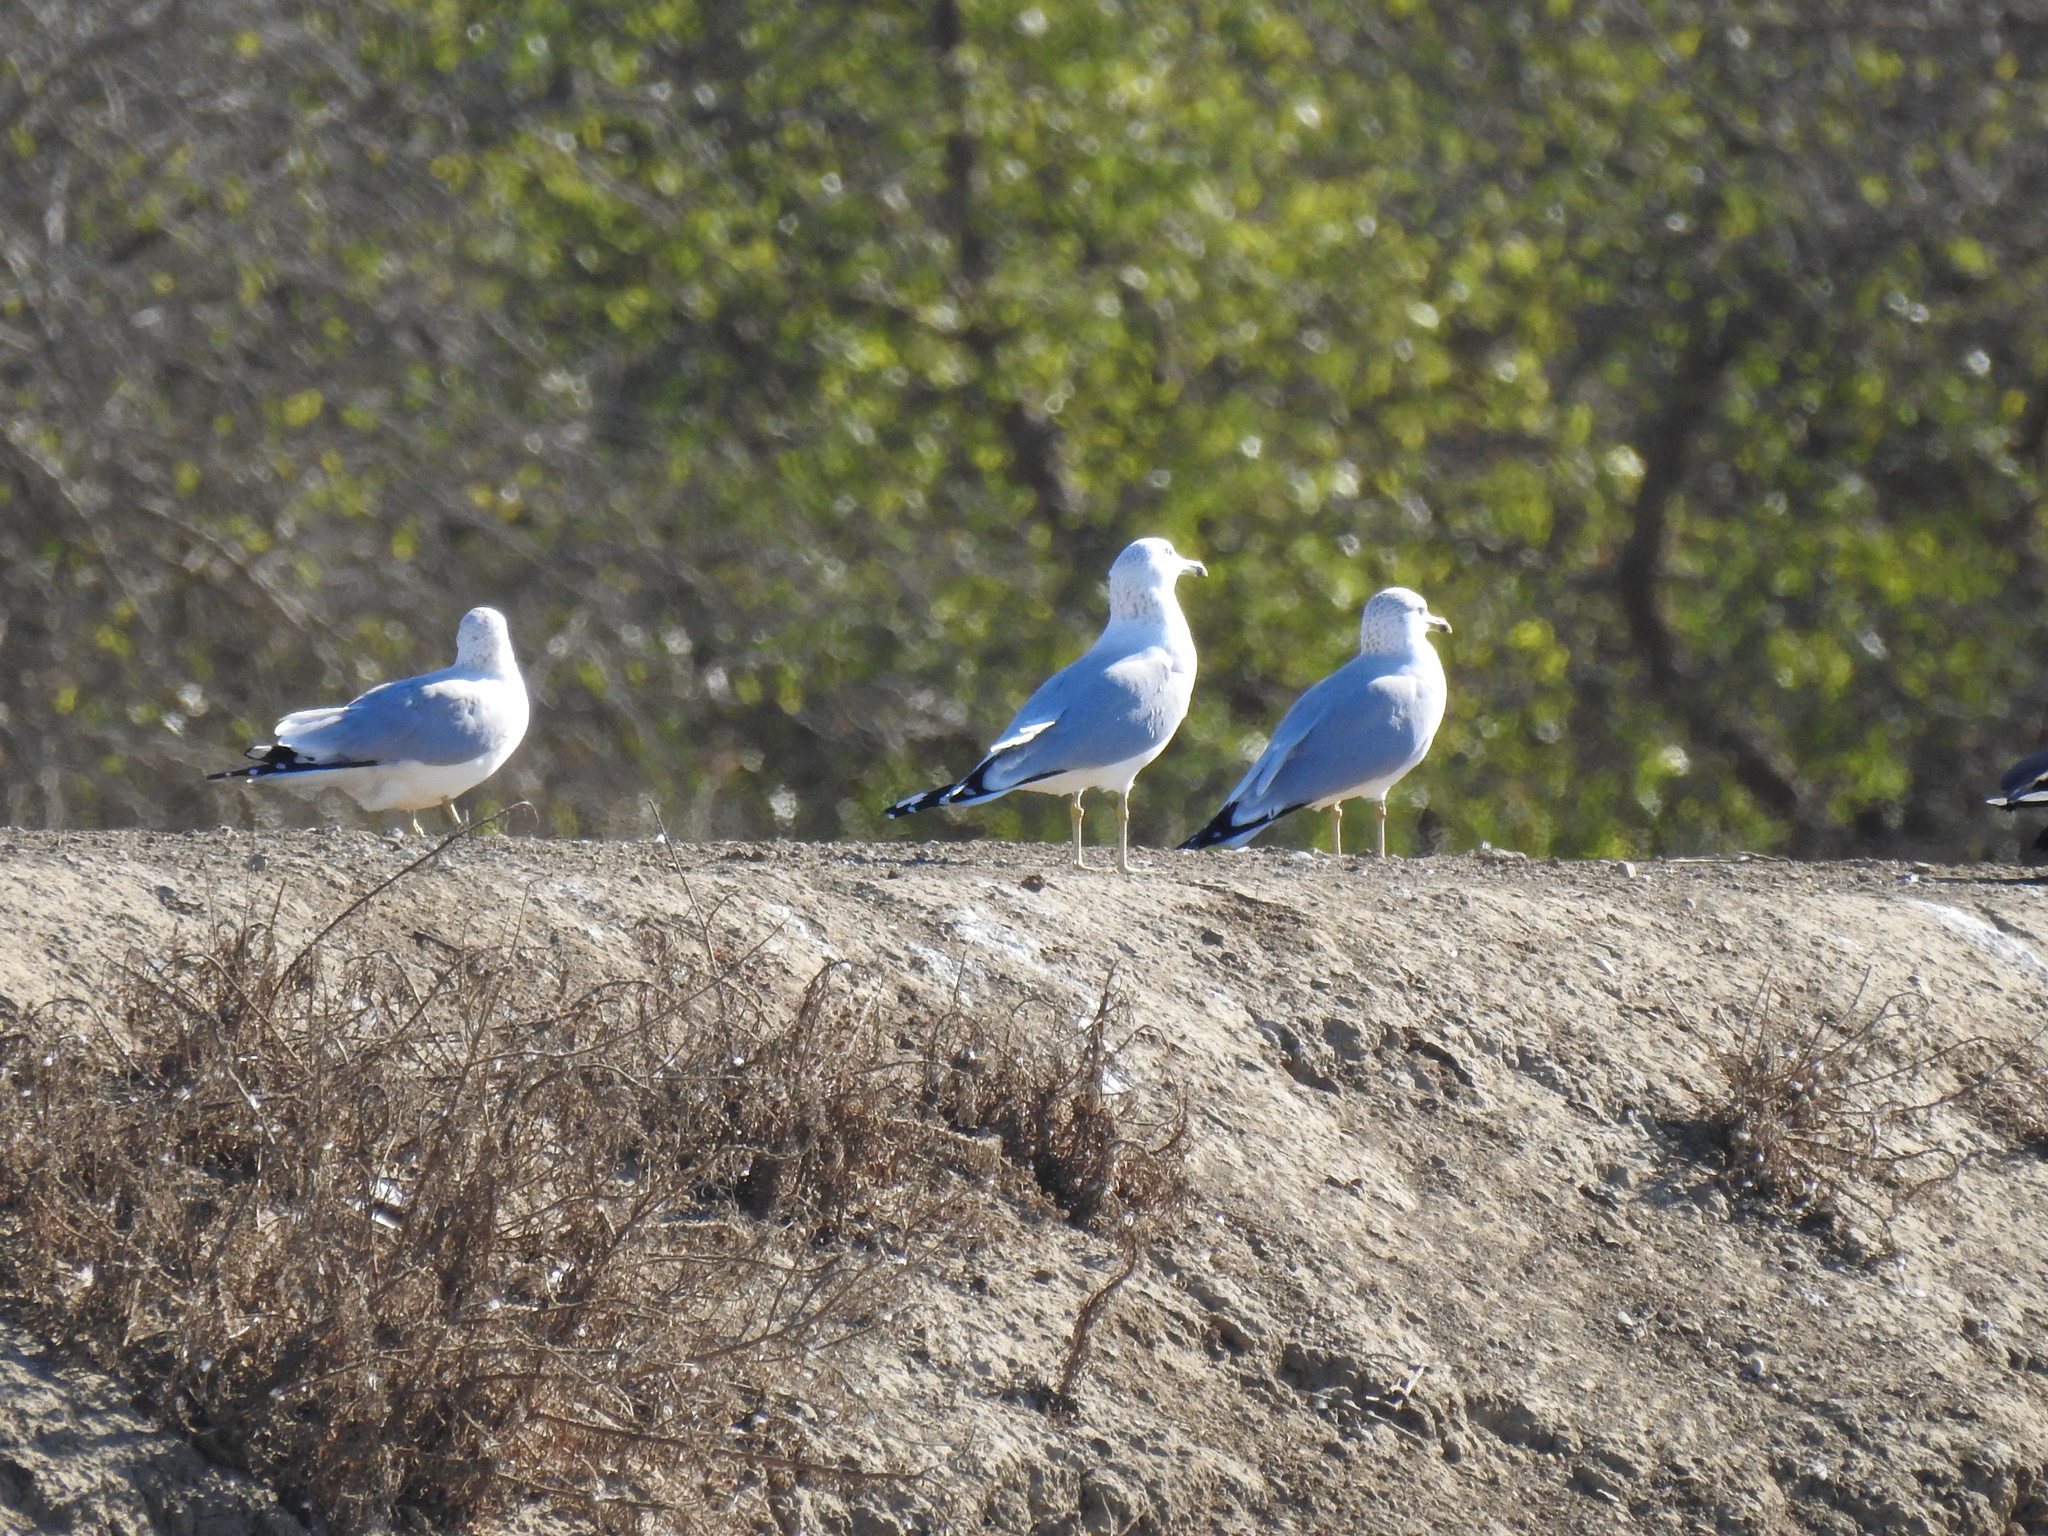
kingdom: Animalia
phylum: Chordata
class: Aves
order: Charadriiformes
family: Laridae
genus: Larus
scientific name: Larus delawarensis
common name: Ring-billed gull
